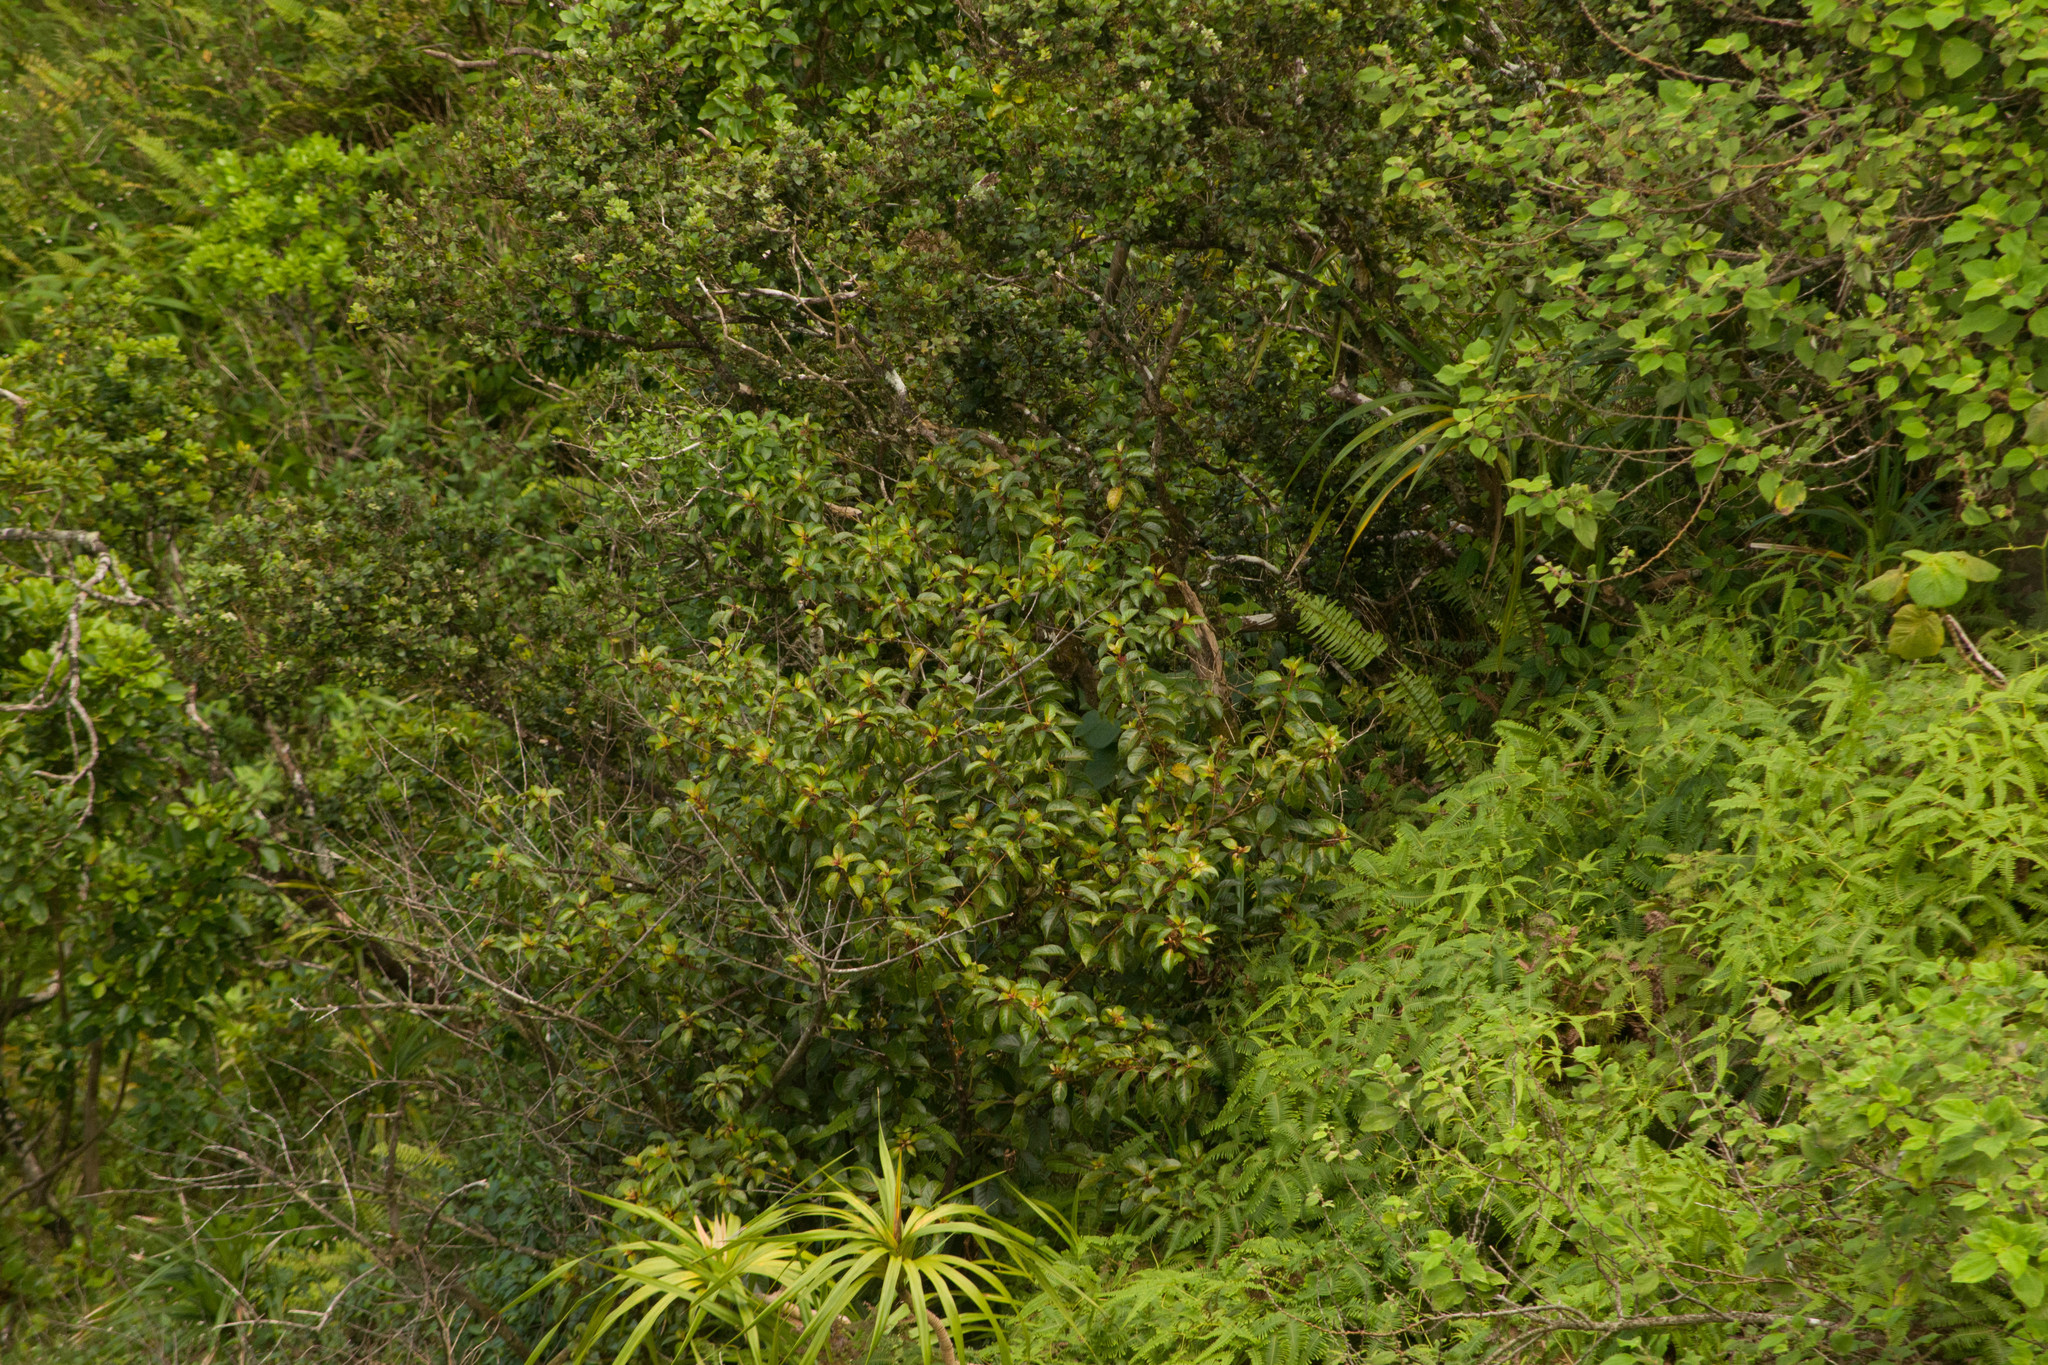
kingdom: Plantae
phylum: Tracheophyta
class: Magnoliopsida
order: Huerteales
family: Dipentodontaceae
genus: Perrottetia
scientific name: Perrottetia sandwicensis
